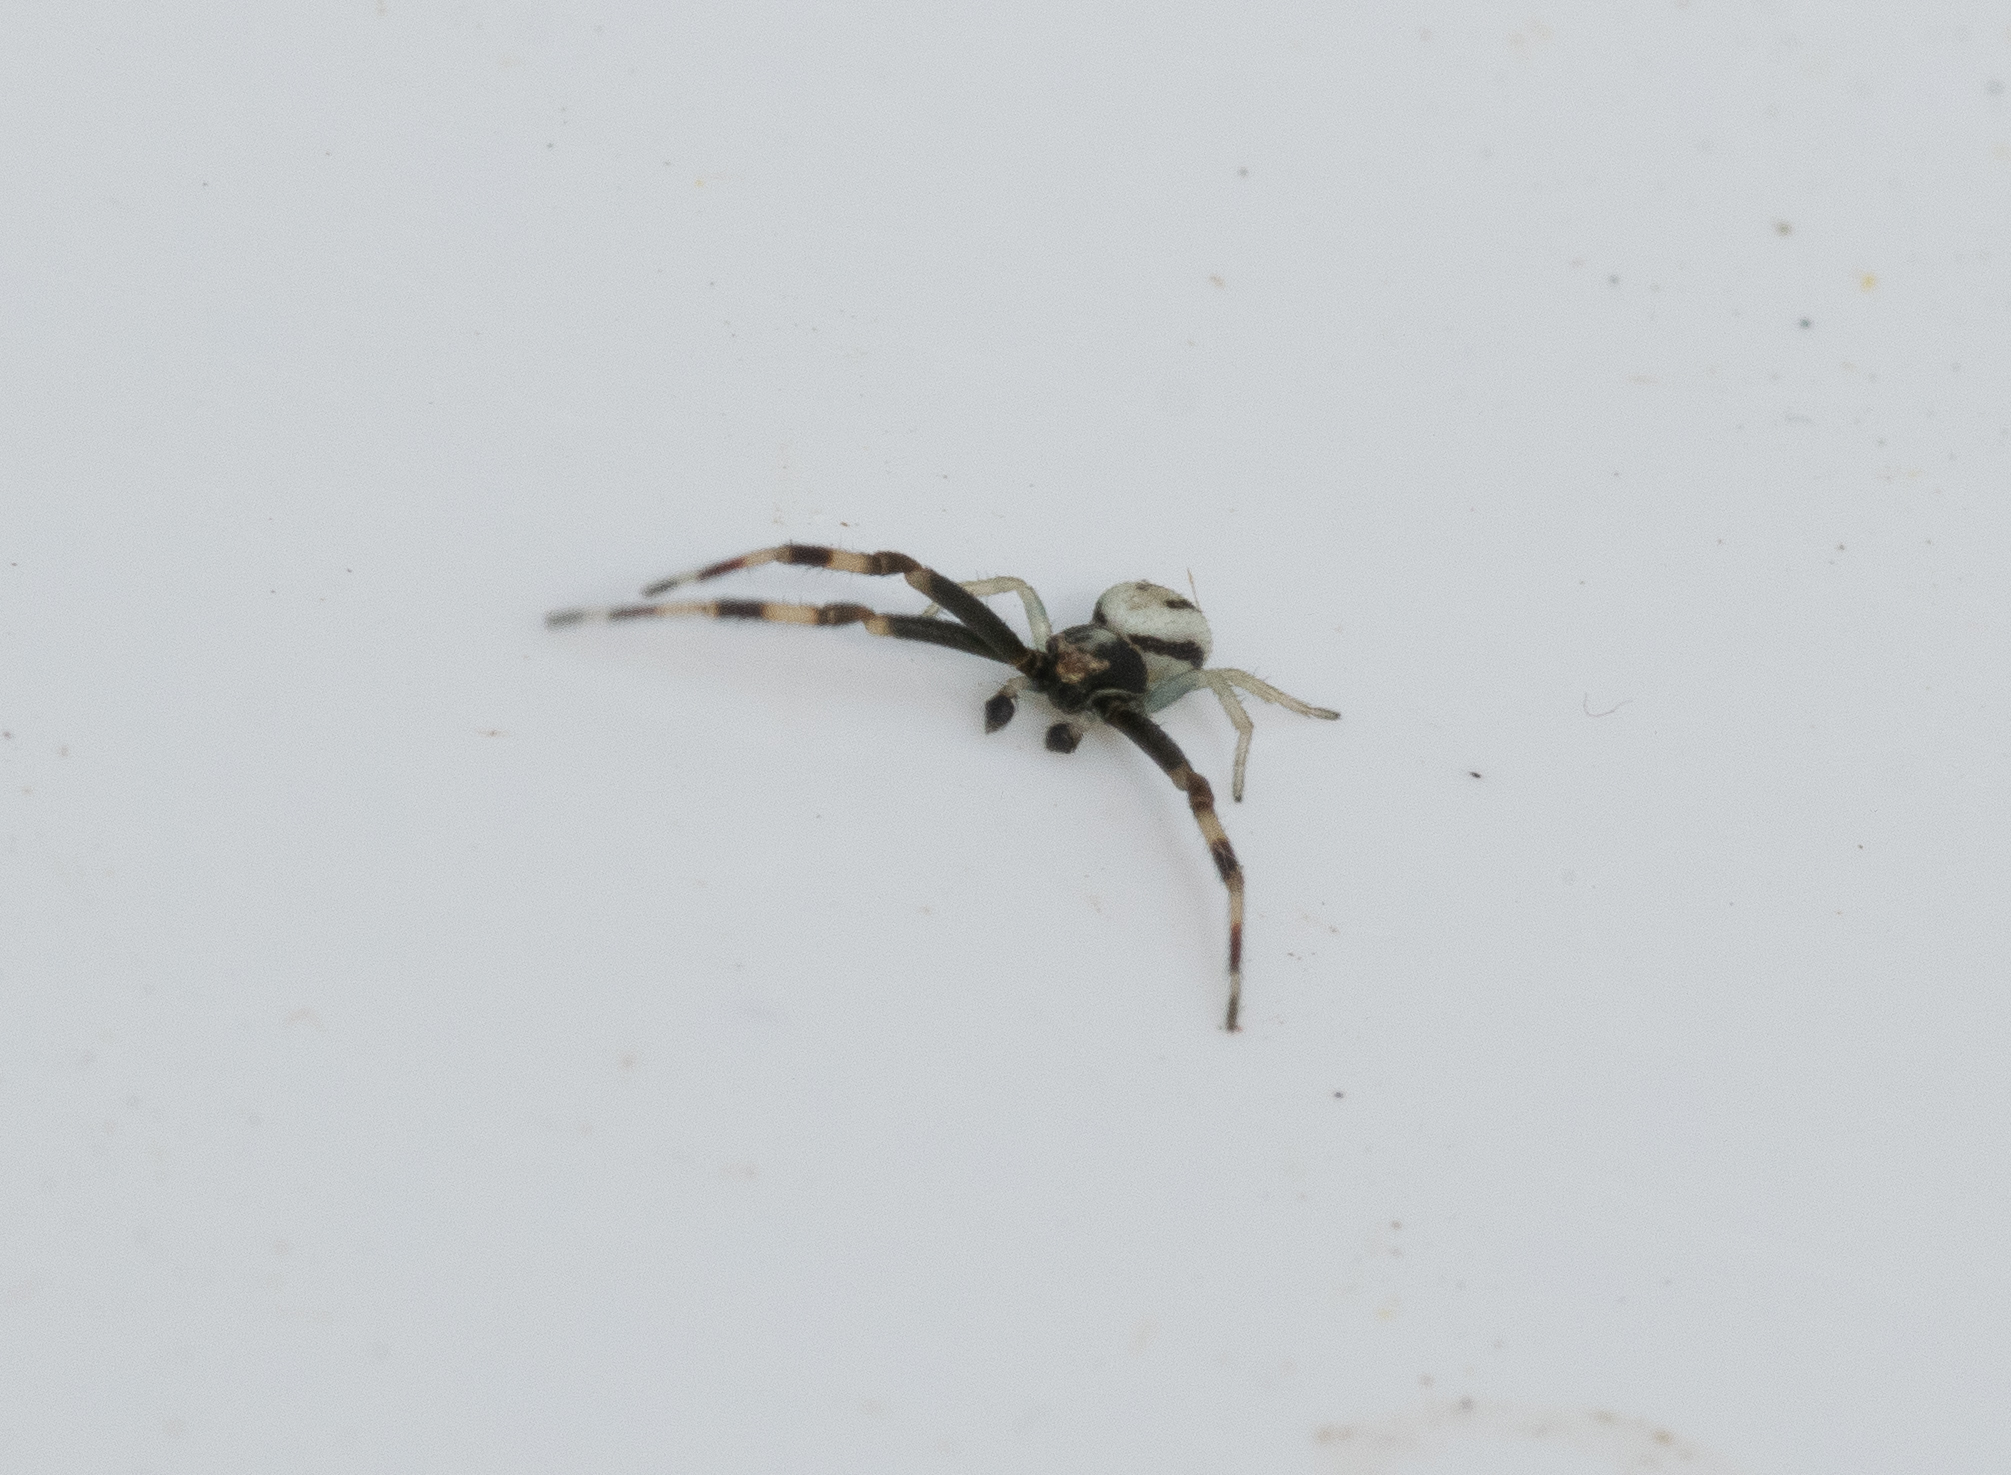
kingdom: Animalia
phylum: Arthropoda
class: Arachnida
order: Araneae
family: Thomisidae
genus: Misumena
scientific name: Misumena vatia
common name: Goldenrod crab spider
